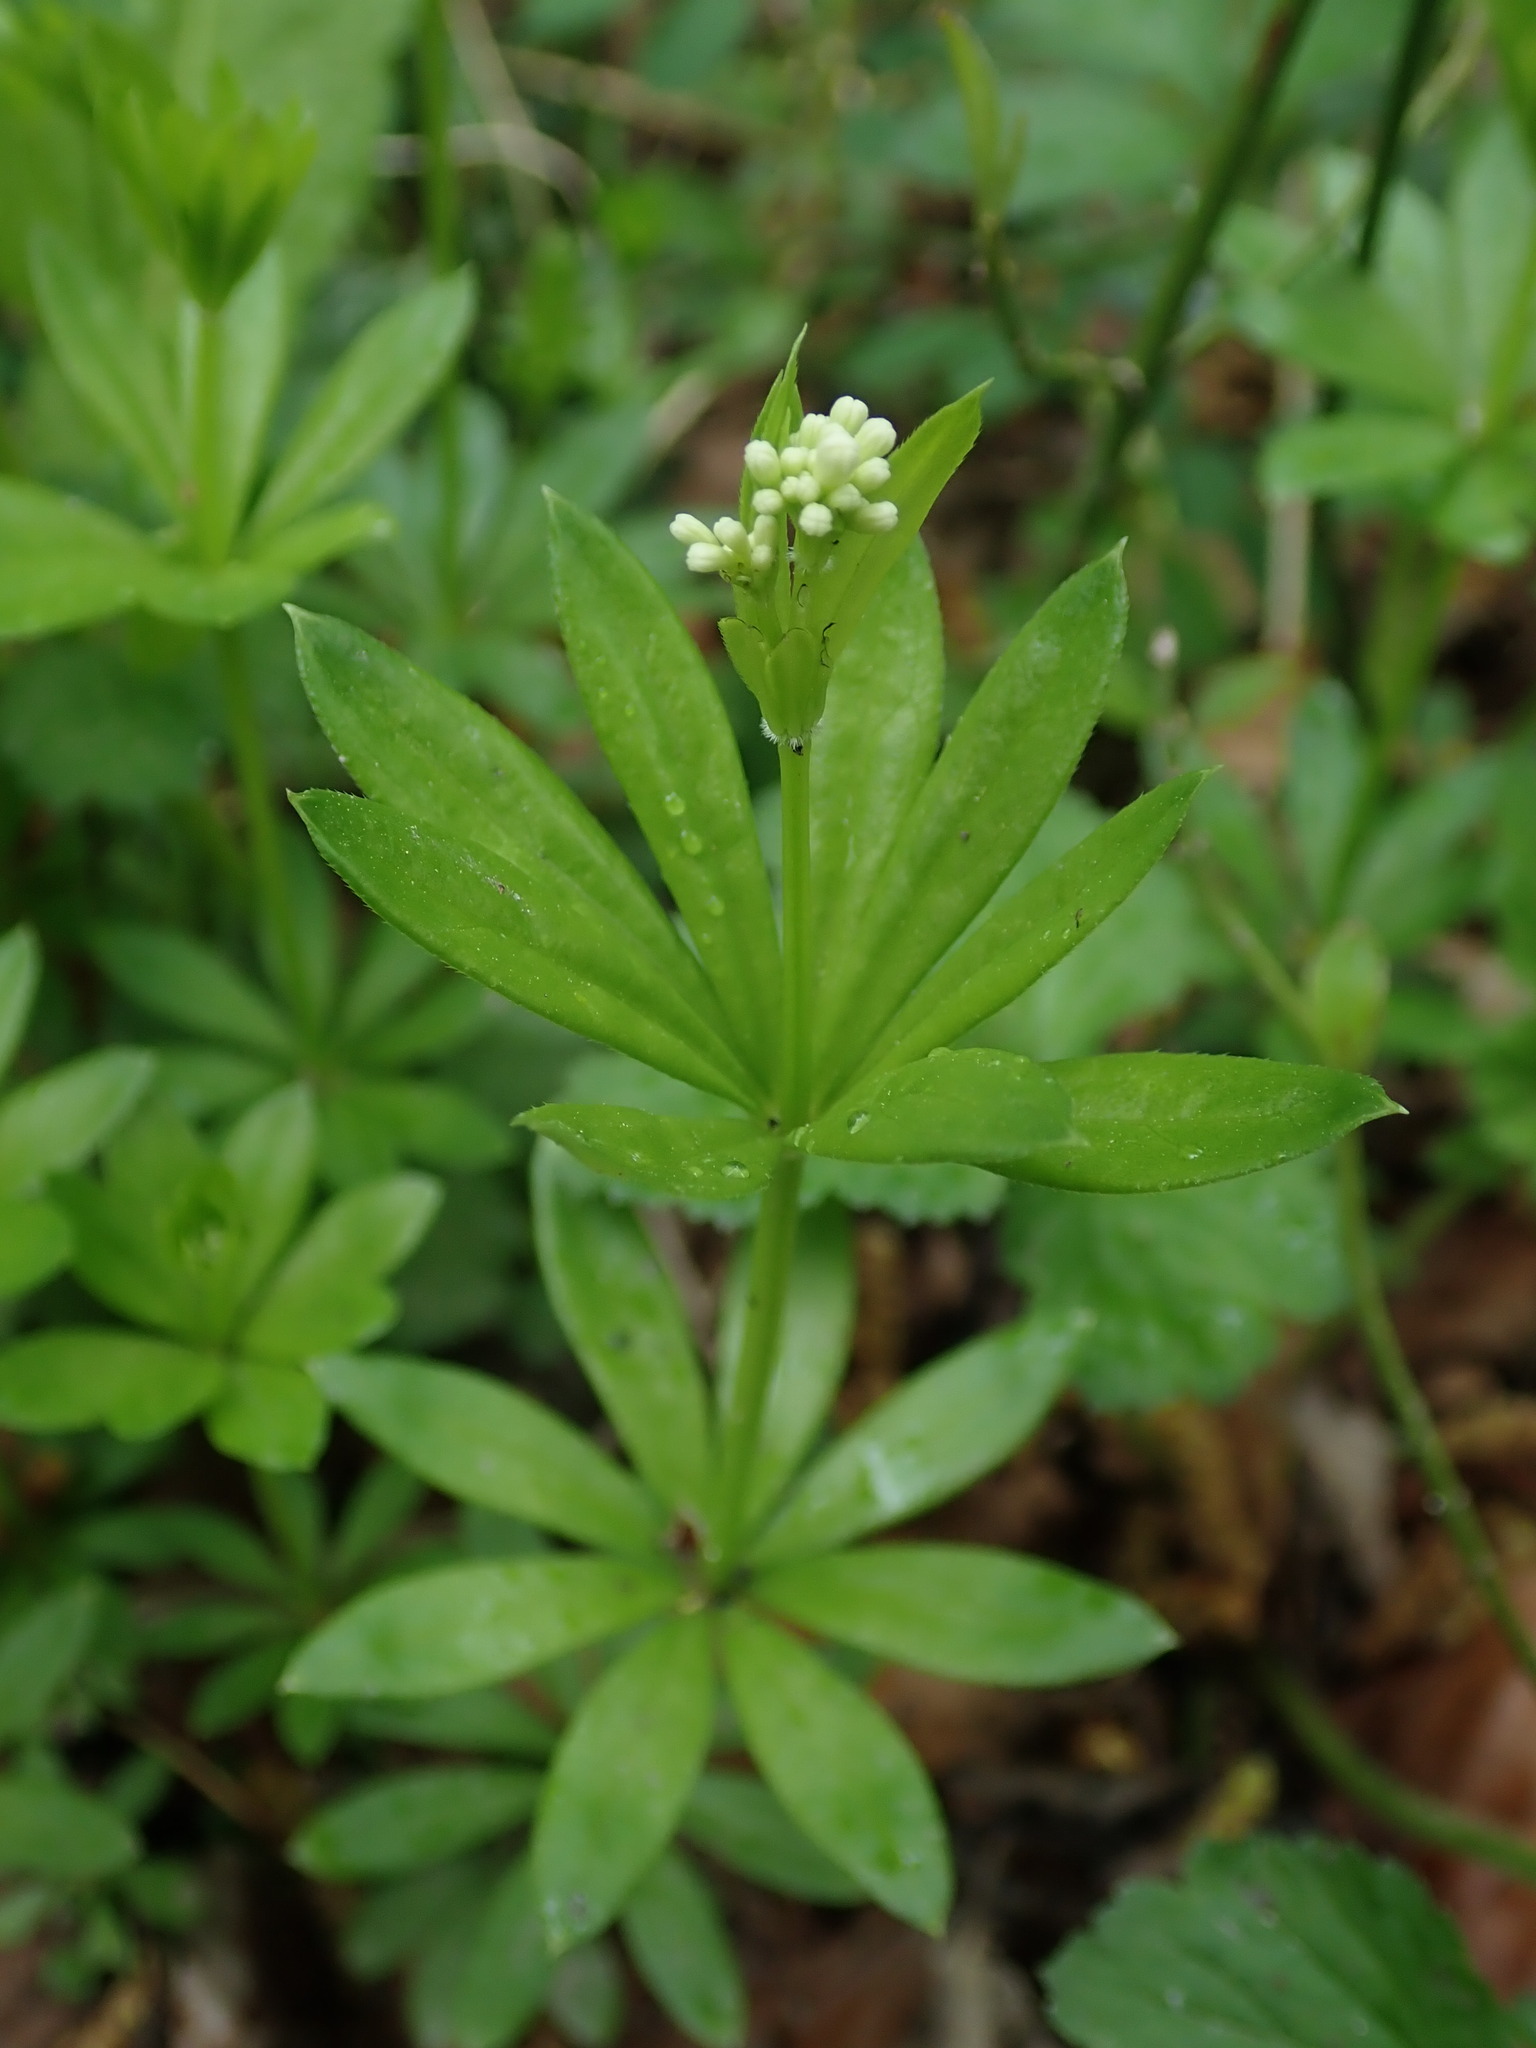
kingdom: Plantae
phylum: Tracheophyta
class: Magnoliopsida
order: Gentianales
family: Rubiaceae
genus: Galium
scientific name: Galium odoratum
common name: Sweet woodruff
